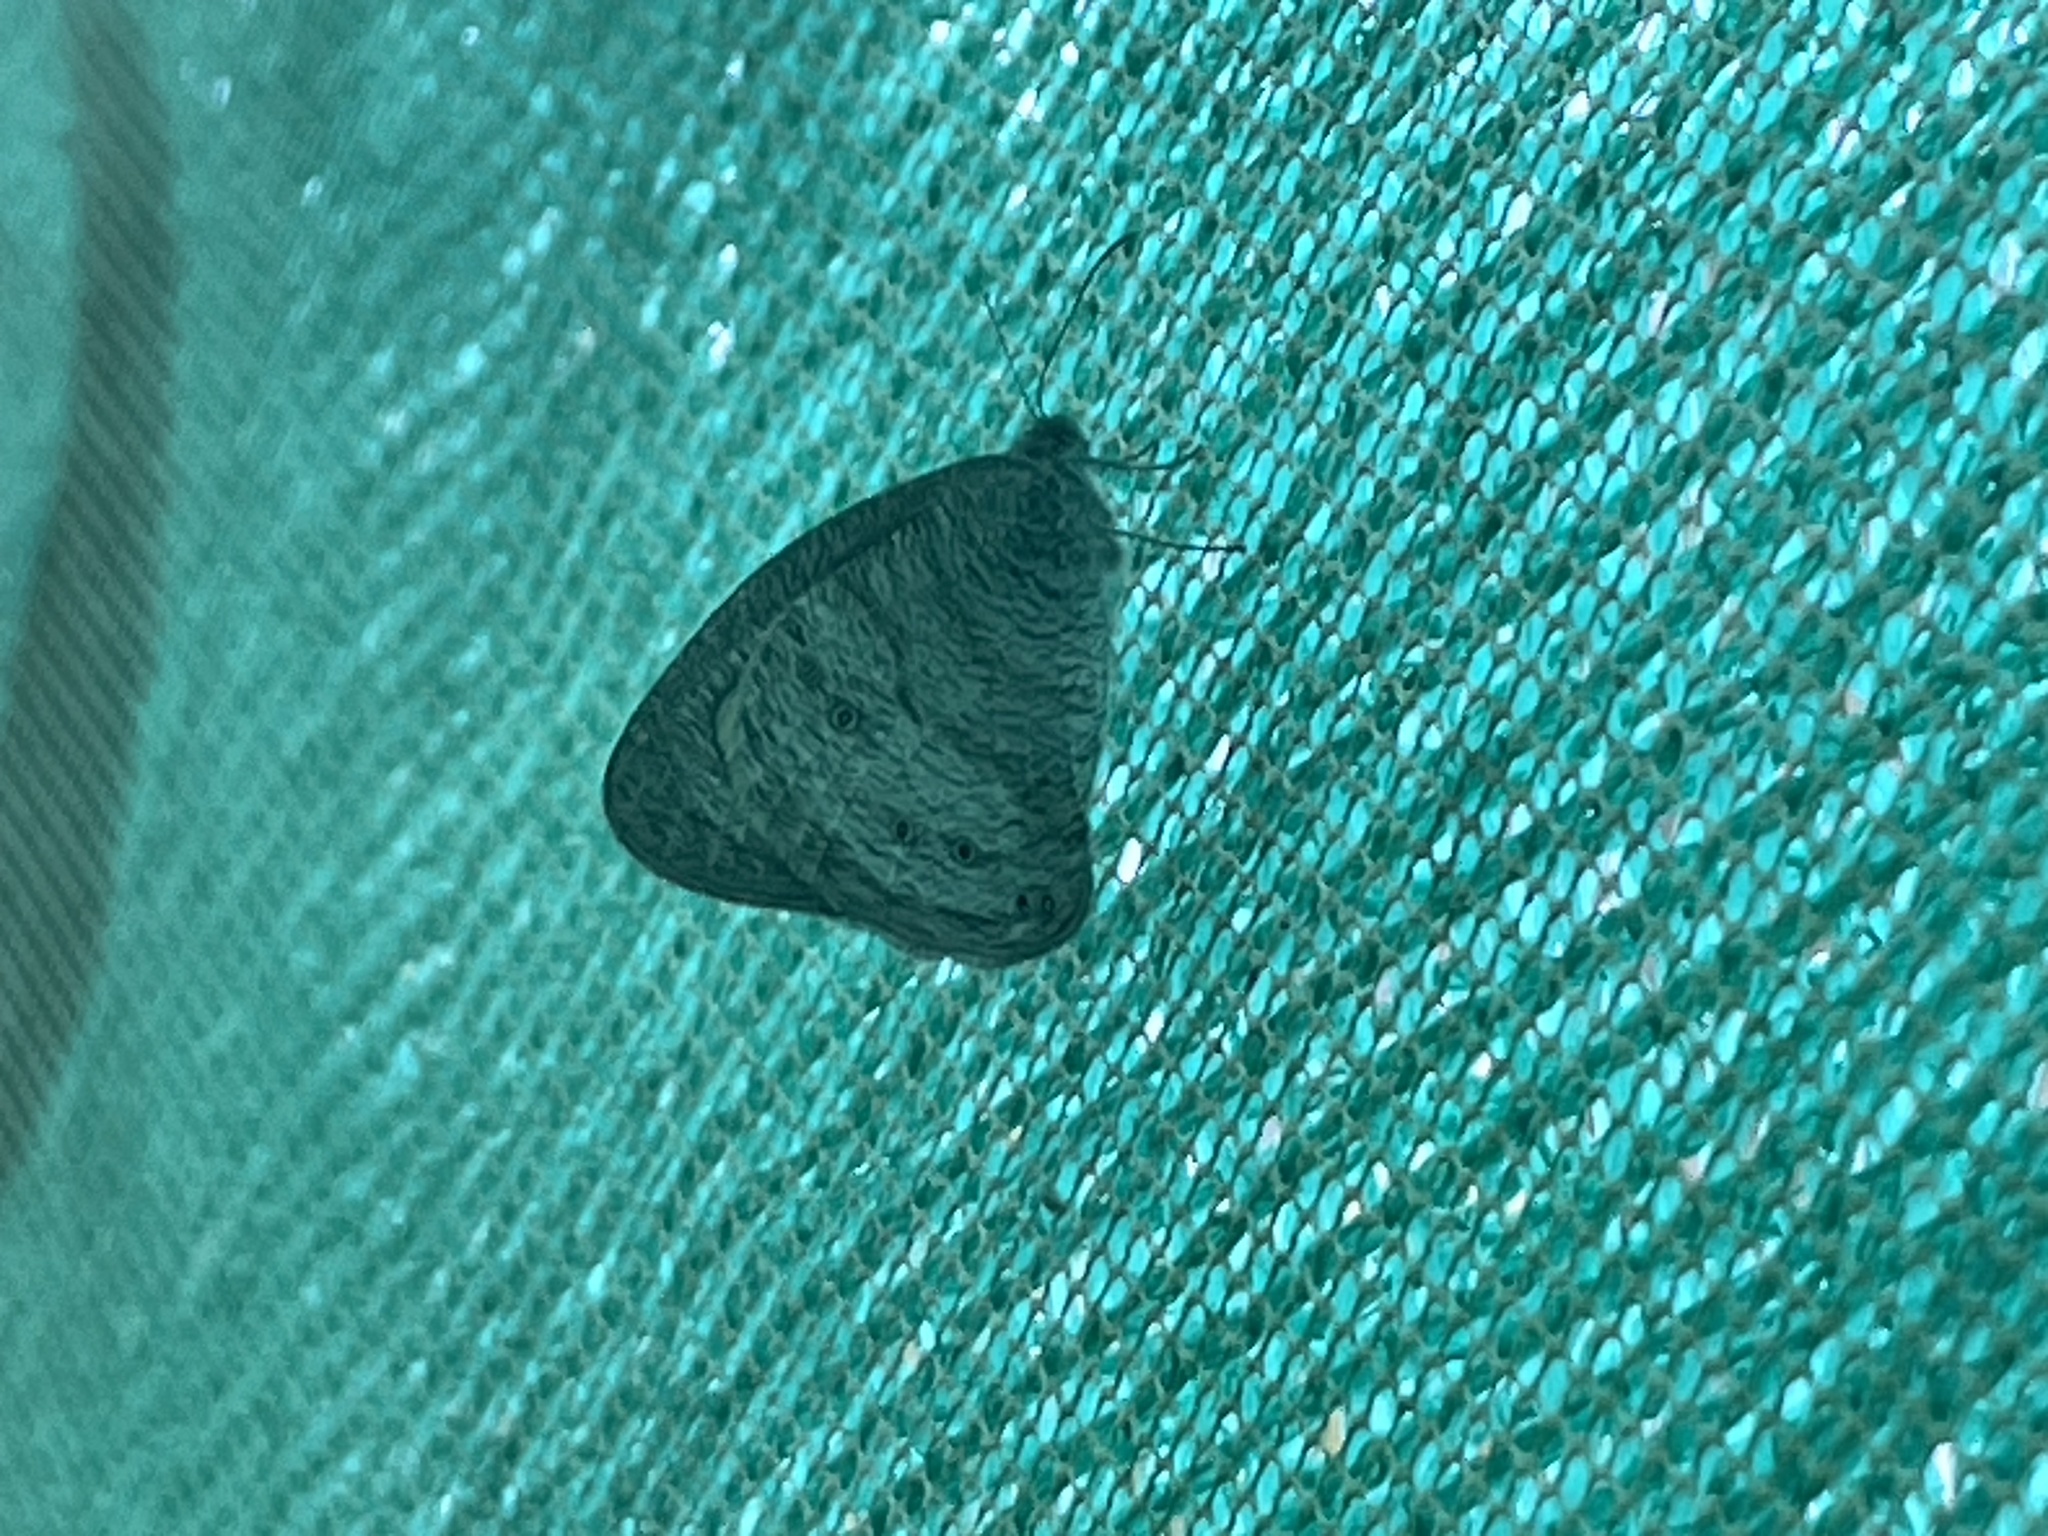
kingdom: Animalia
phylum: Arthropoda
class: Insecta
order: Lepidoptera
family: Nymphalidae
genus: Ypthima
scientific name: Ypthima baldus
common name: Common five-ring
